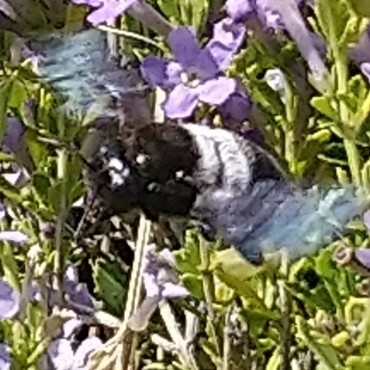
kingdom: Animalia
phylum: Arthropoda
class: Insecta
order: Hymenoptera
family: Apidae
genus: Xylocopa
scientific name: Xylocopa caffra
